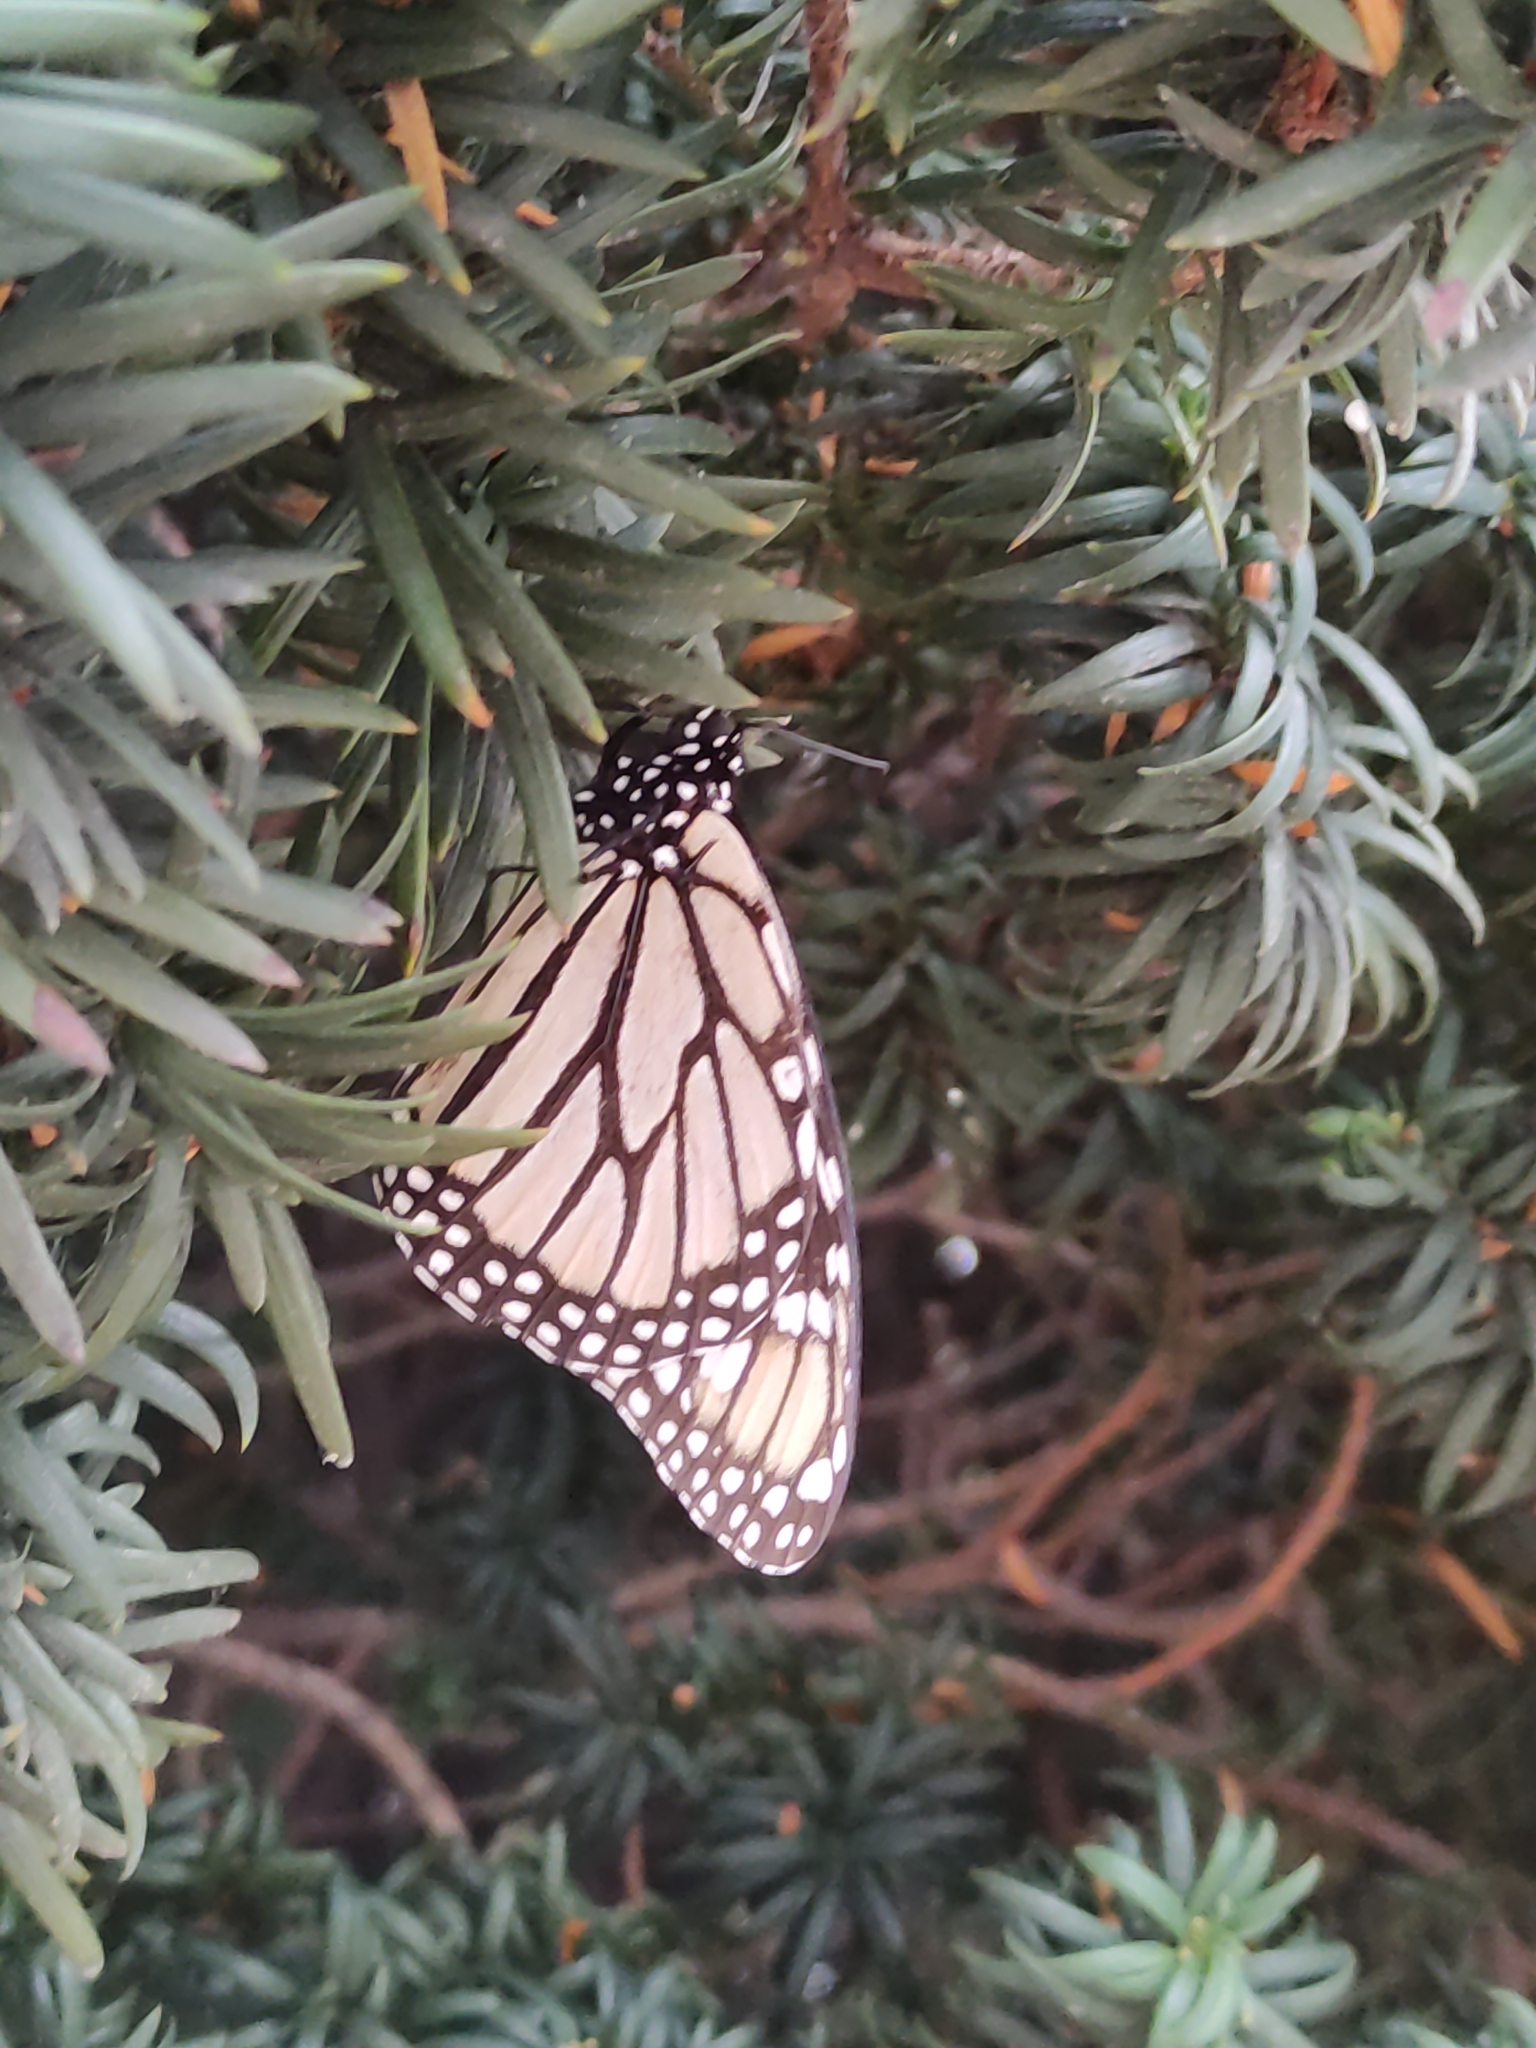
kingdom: Animalia
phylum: Arthropoda
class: Insecta
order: Lepidoptera
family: Nymphalidae
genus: Danaus
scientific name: Danaus plexippus
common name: Monarch
